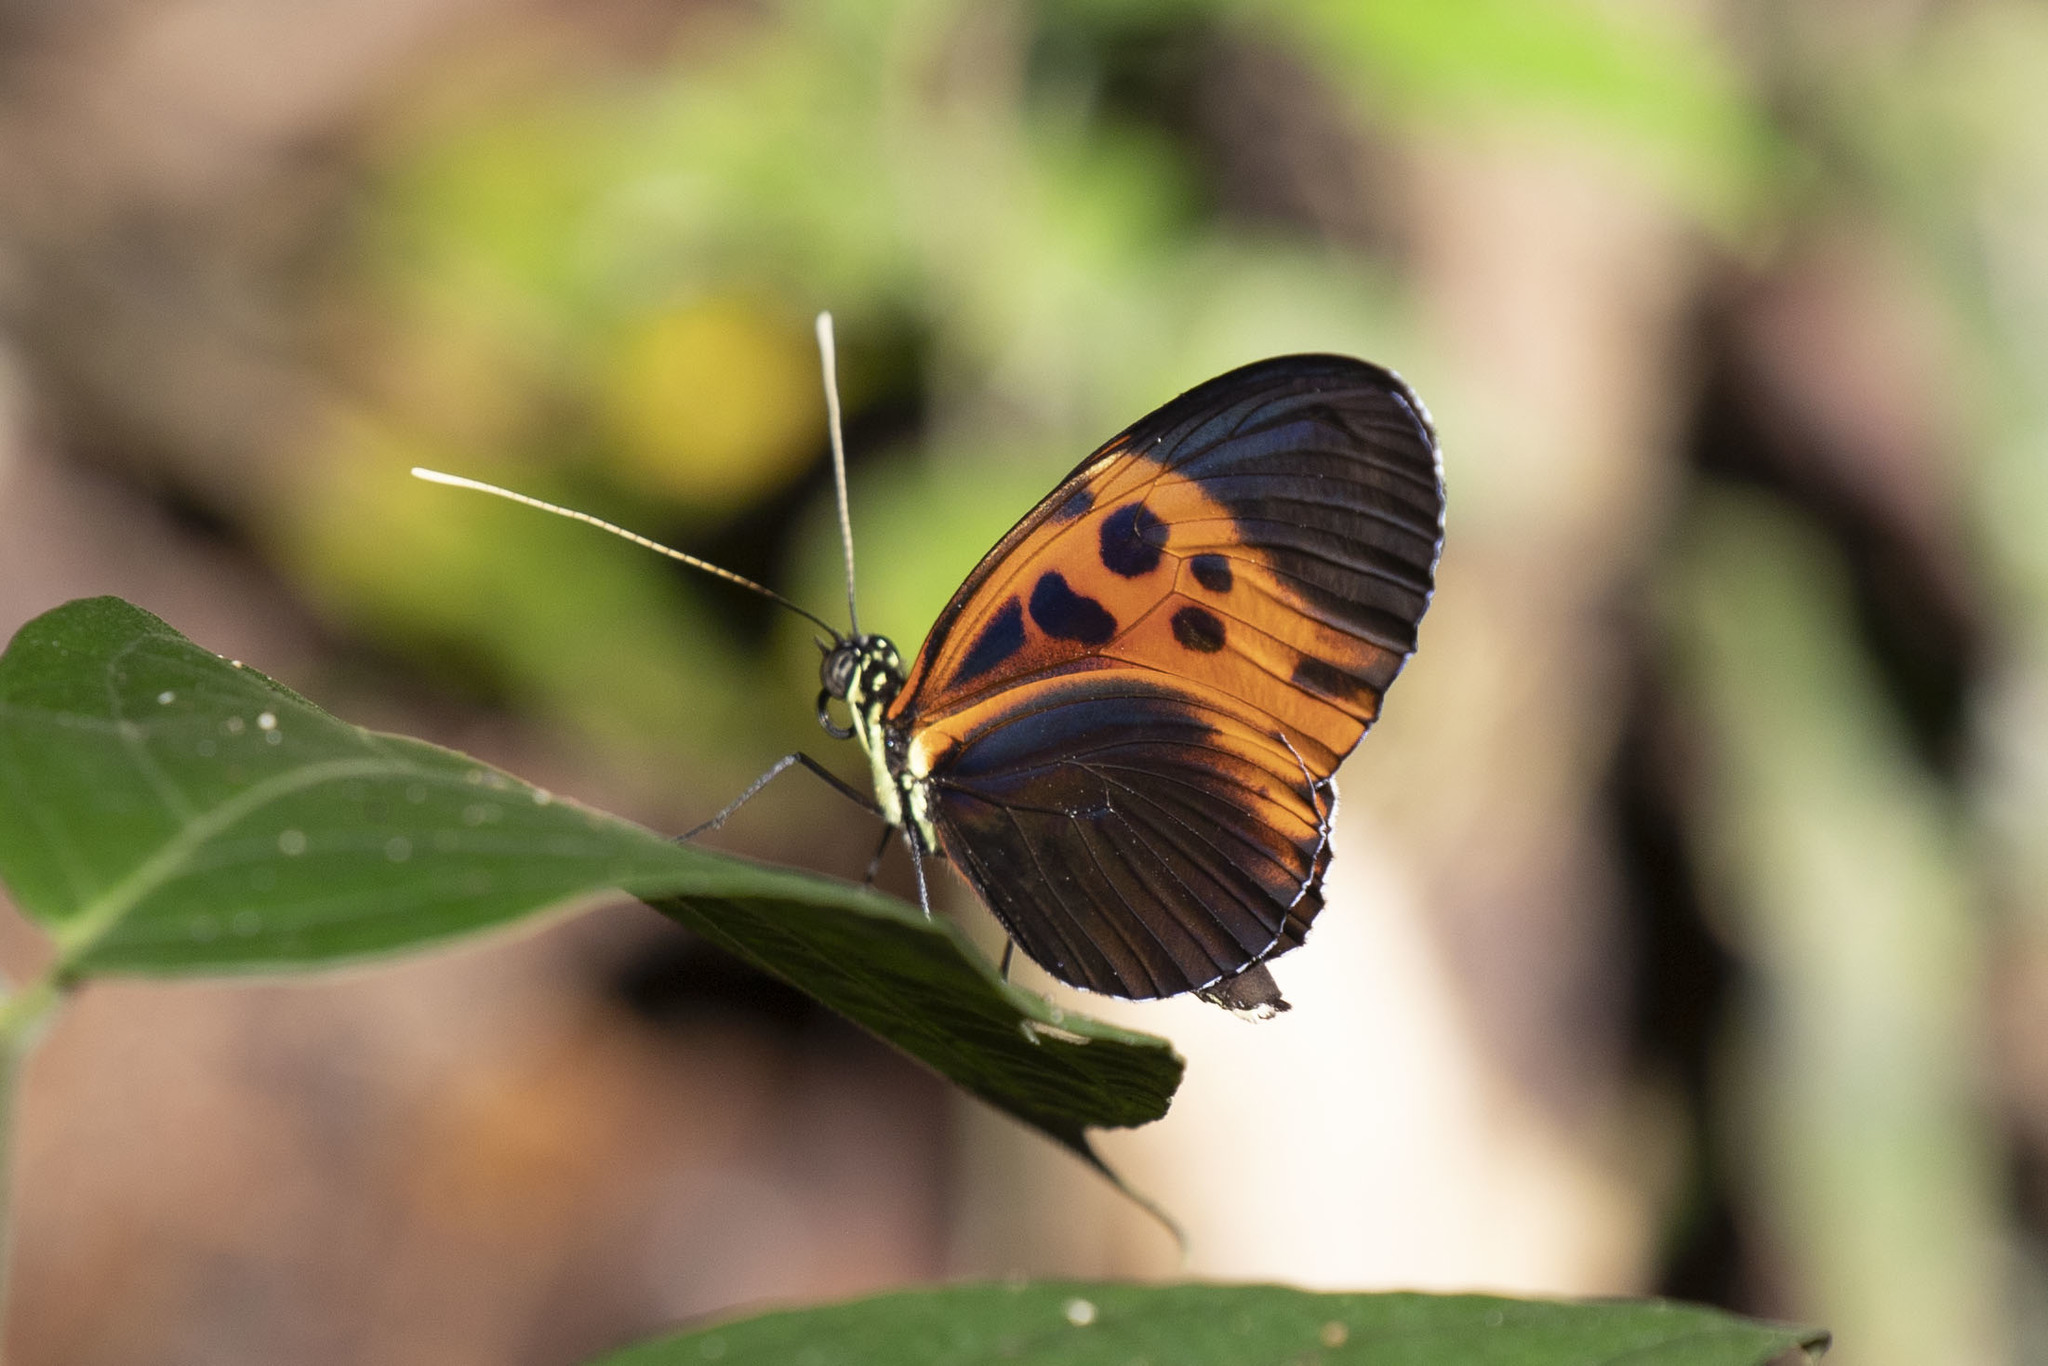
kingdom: Animalia
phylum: Arthropoda
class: Insecta
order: Lepidoptera
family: Nymphalidae
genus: Heliconius
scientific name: Heliconius numatus
